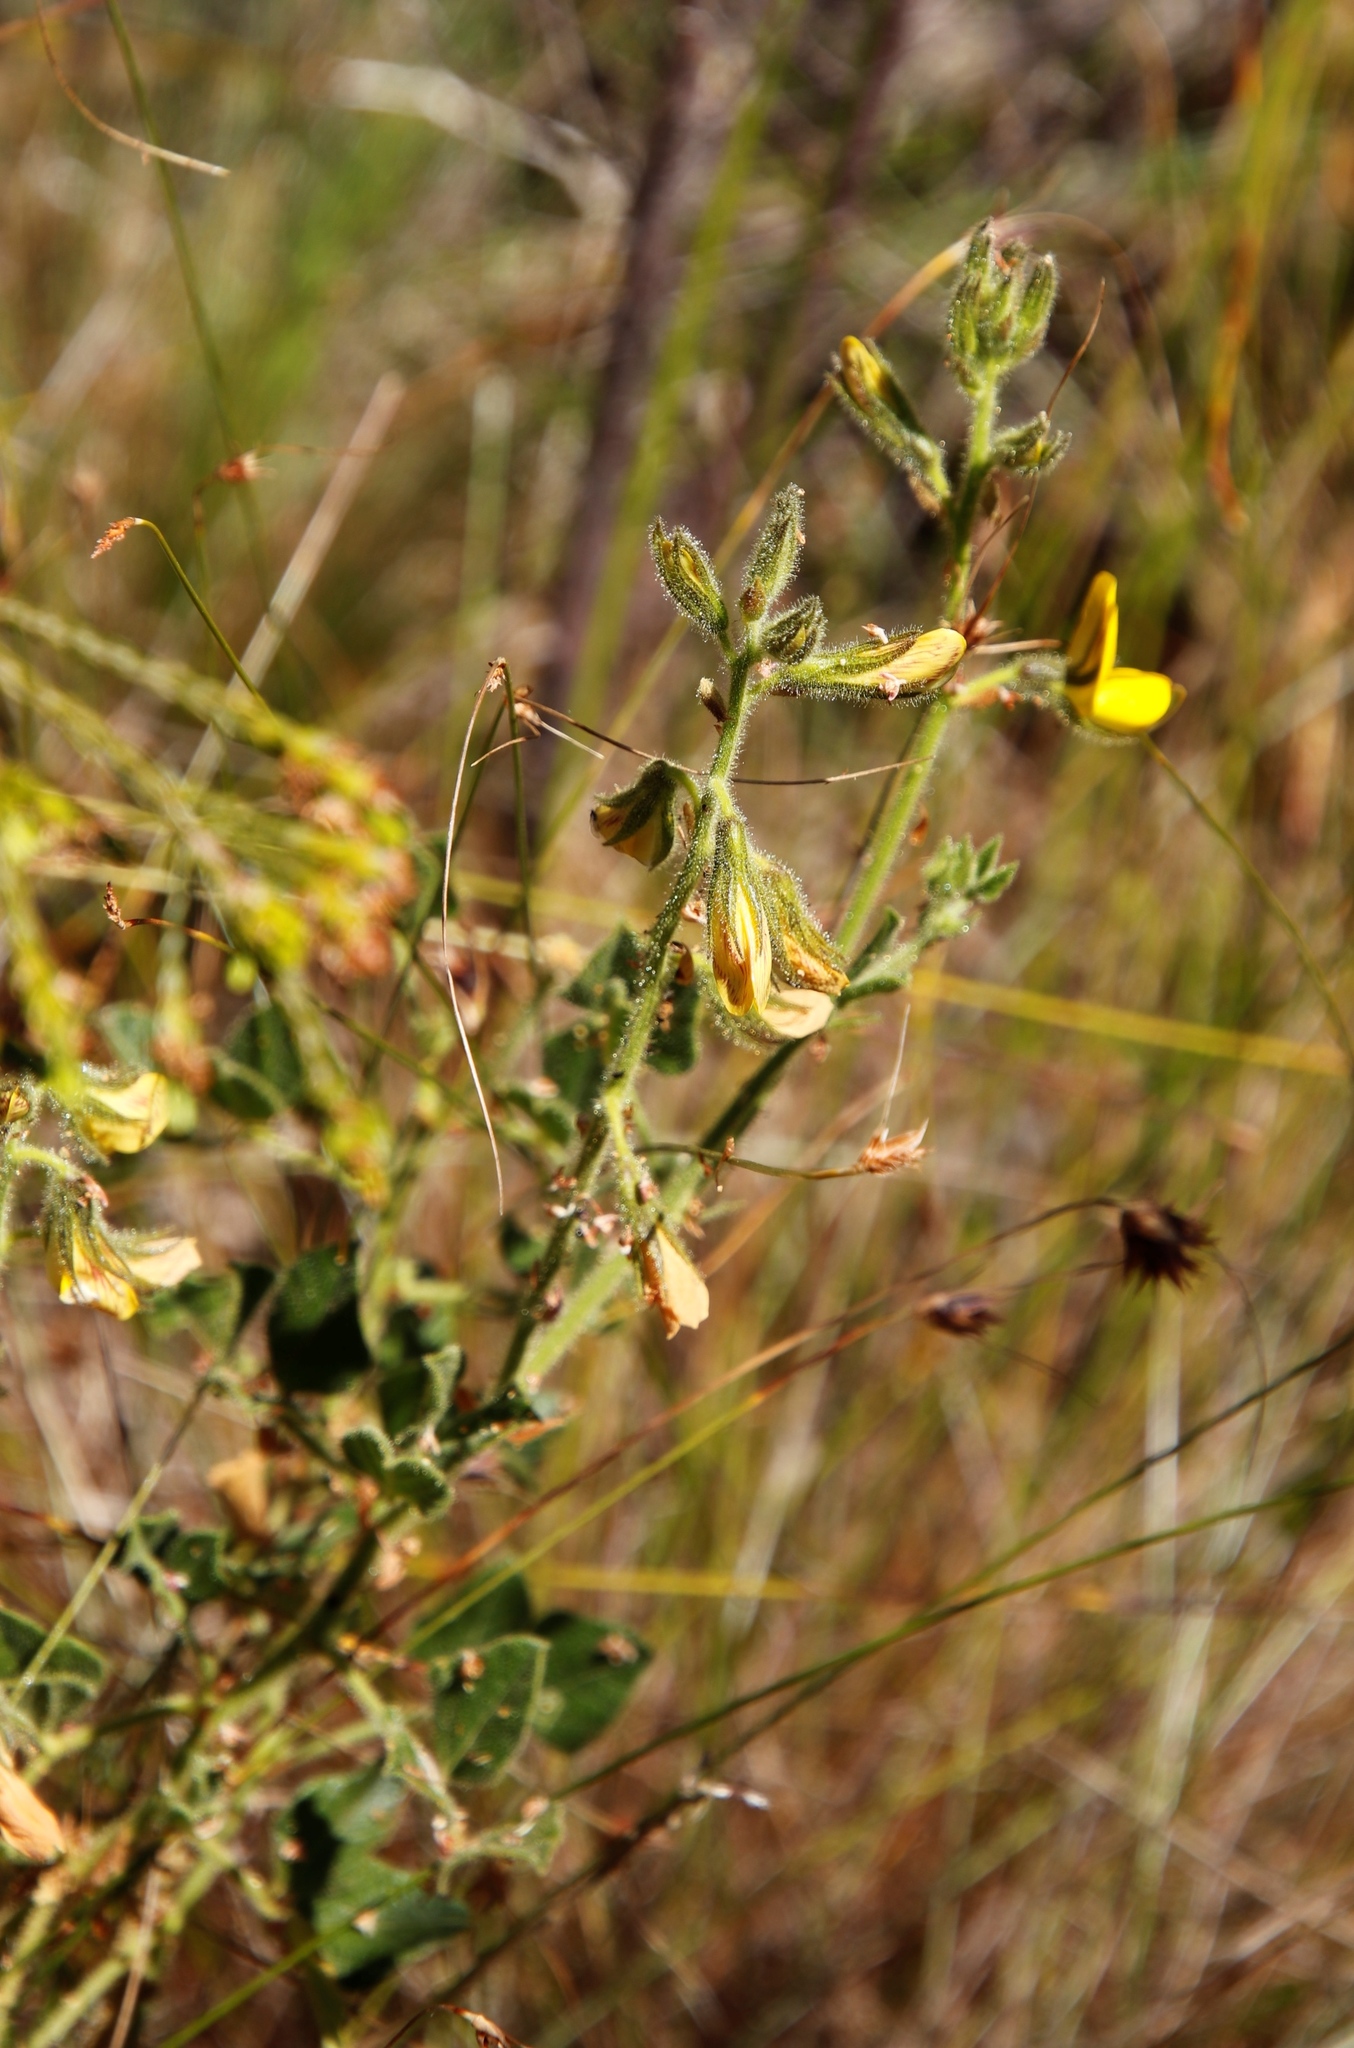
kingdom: Plantae
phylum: Tracheophyta
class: Magnoliopsida
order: Fabales
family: Fabaceae
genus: Bolusafra
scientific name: Bolusafra bituminosa
